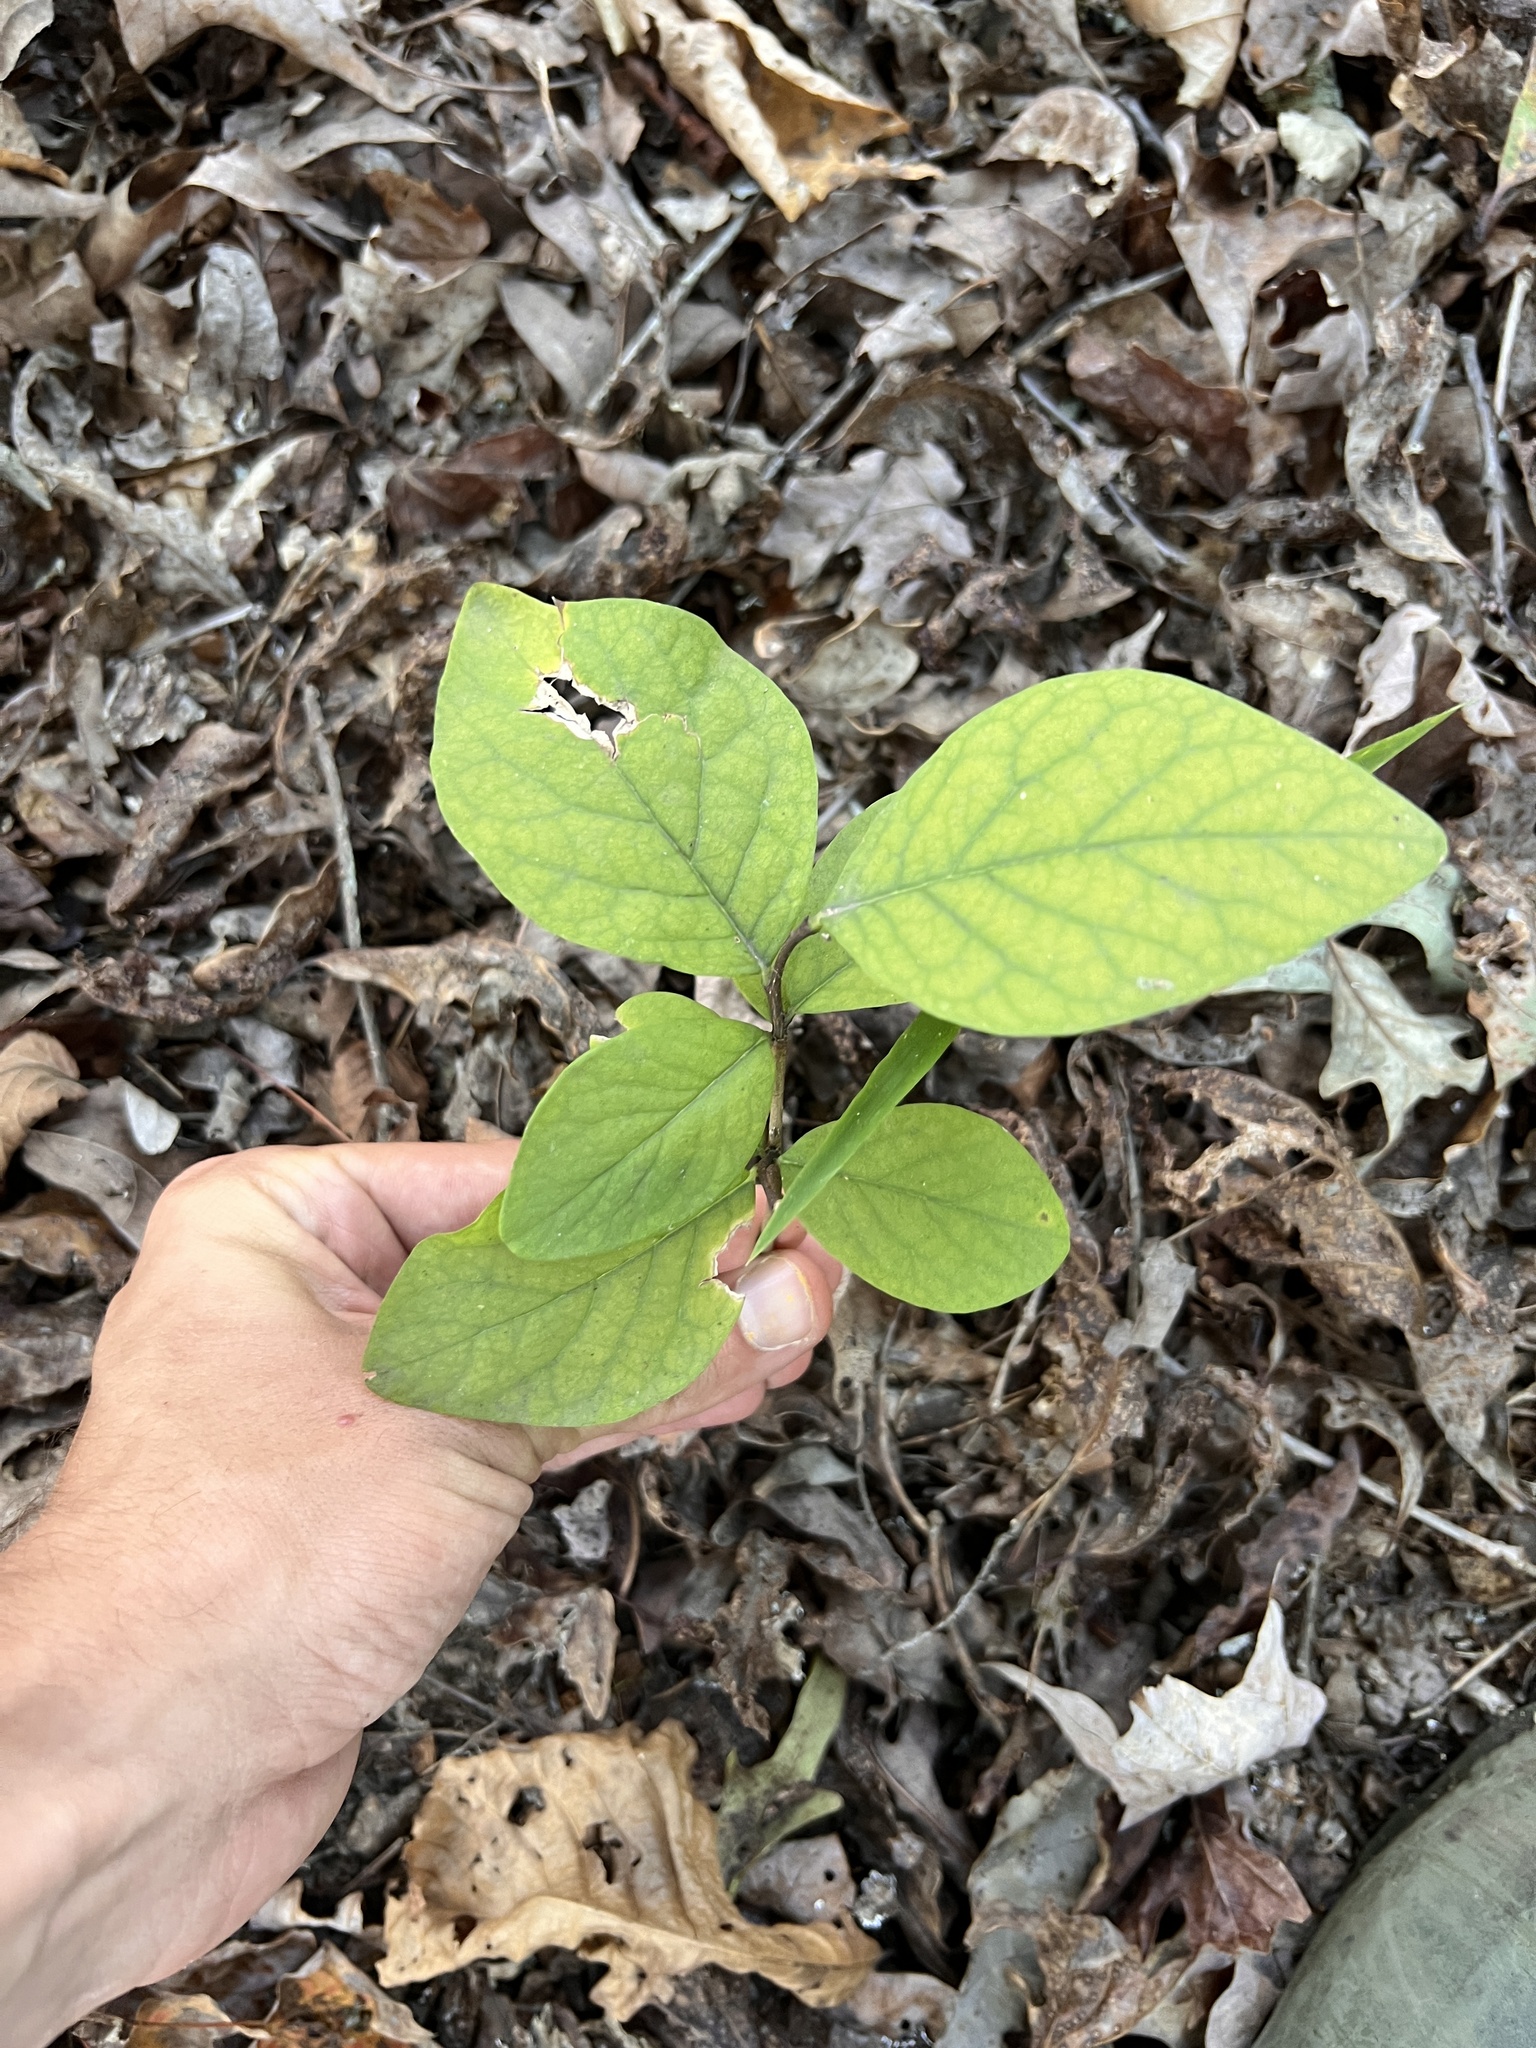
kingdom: Plantae
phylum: Tracheophyta
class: Magnoliopsida
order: Malvales
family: Thymelaeaceae
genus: Dirca
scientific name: Dirca palustris
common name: Leatherwood
